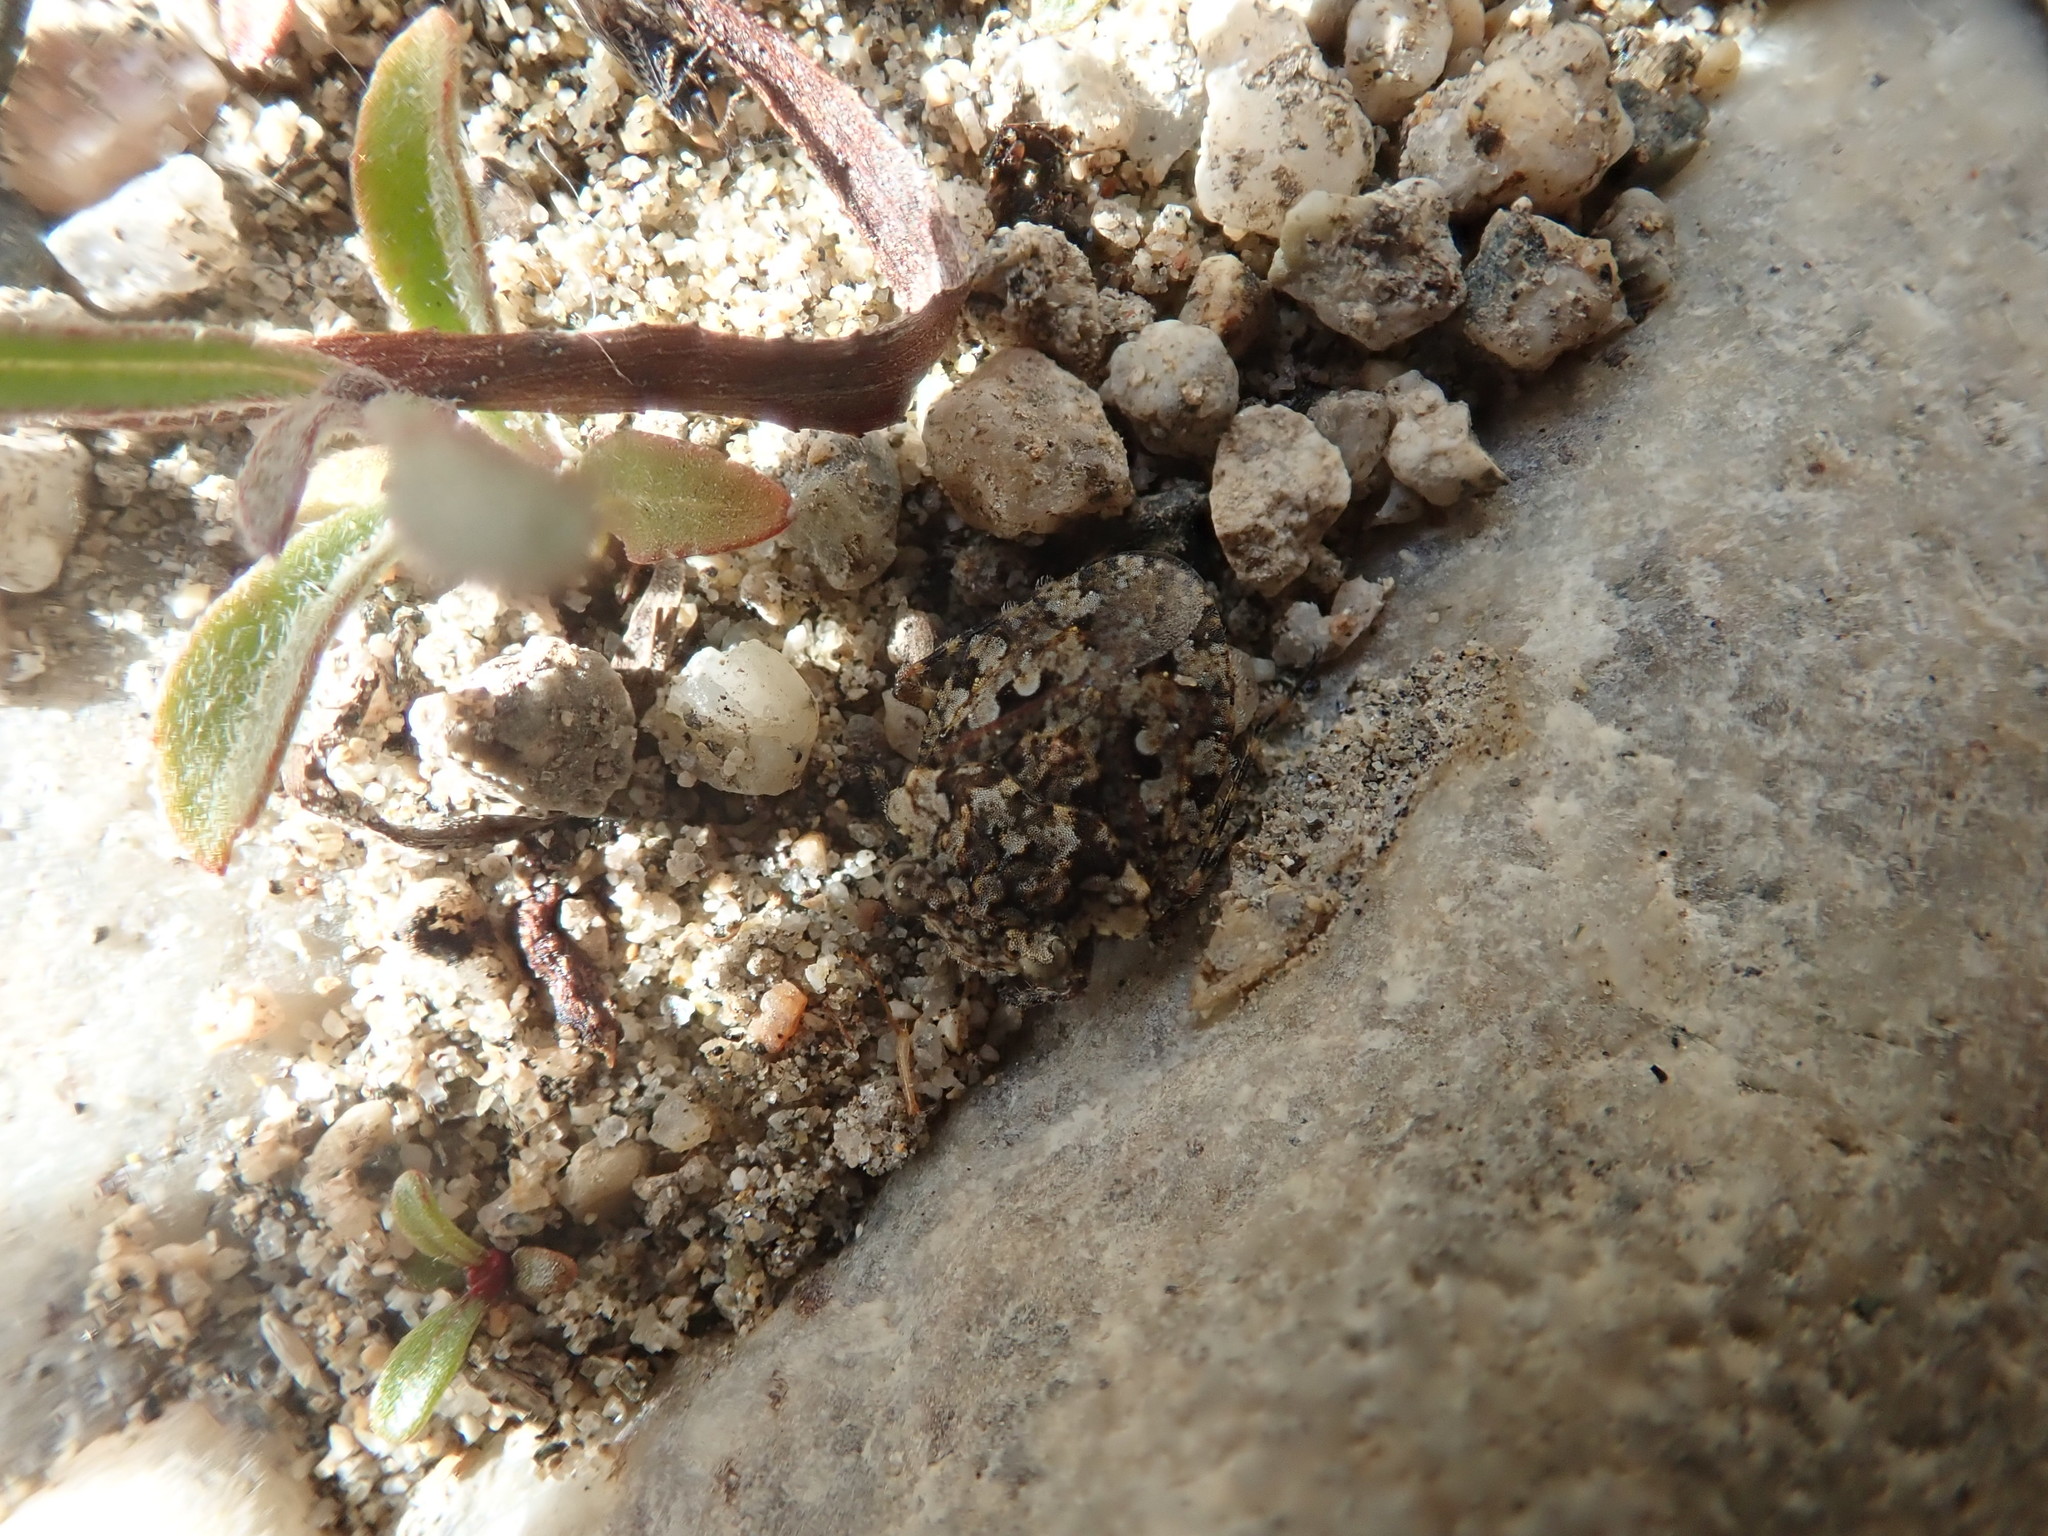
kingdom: Animalia
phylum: Arthropoda
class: Insecta
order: Hemiptera
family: Gelastocoridae
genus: Gelastocoris
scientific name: Gelastocoris oculatus
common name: Toad bug
